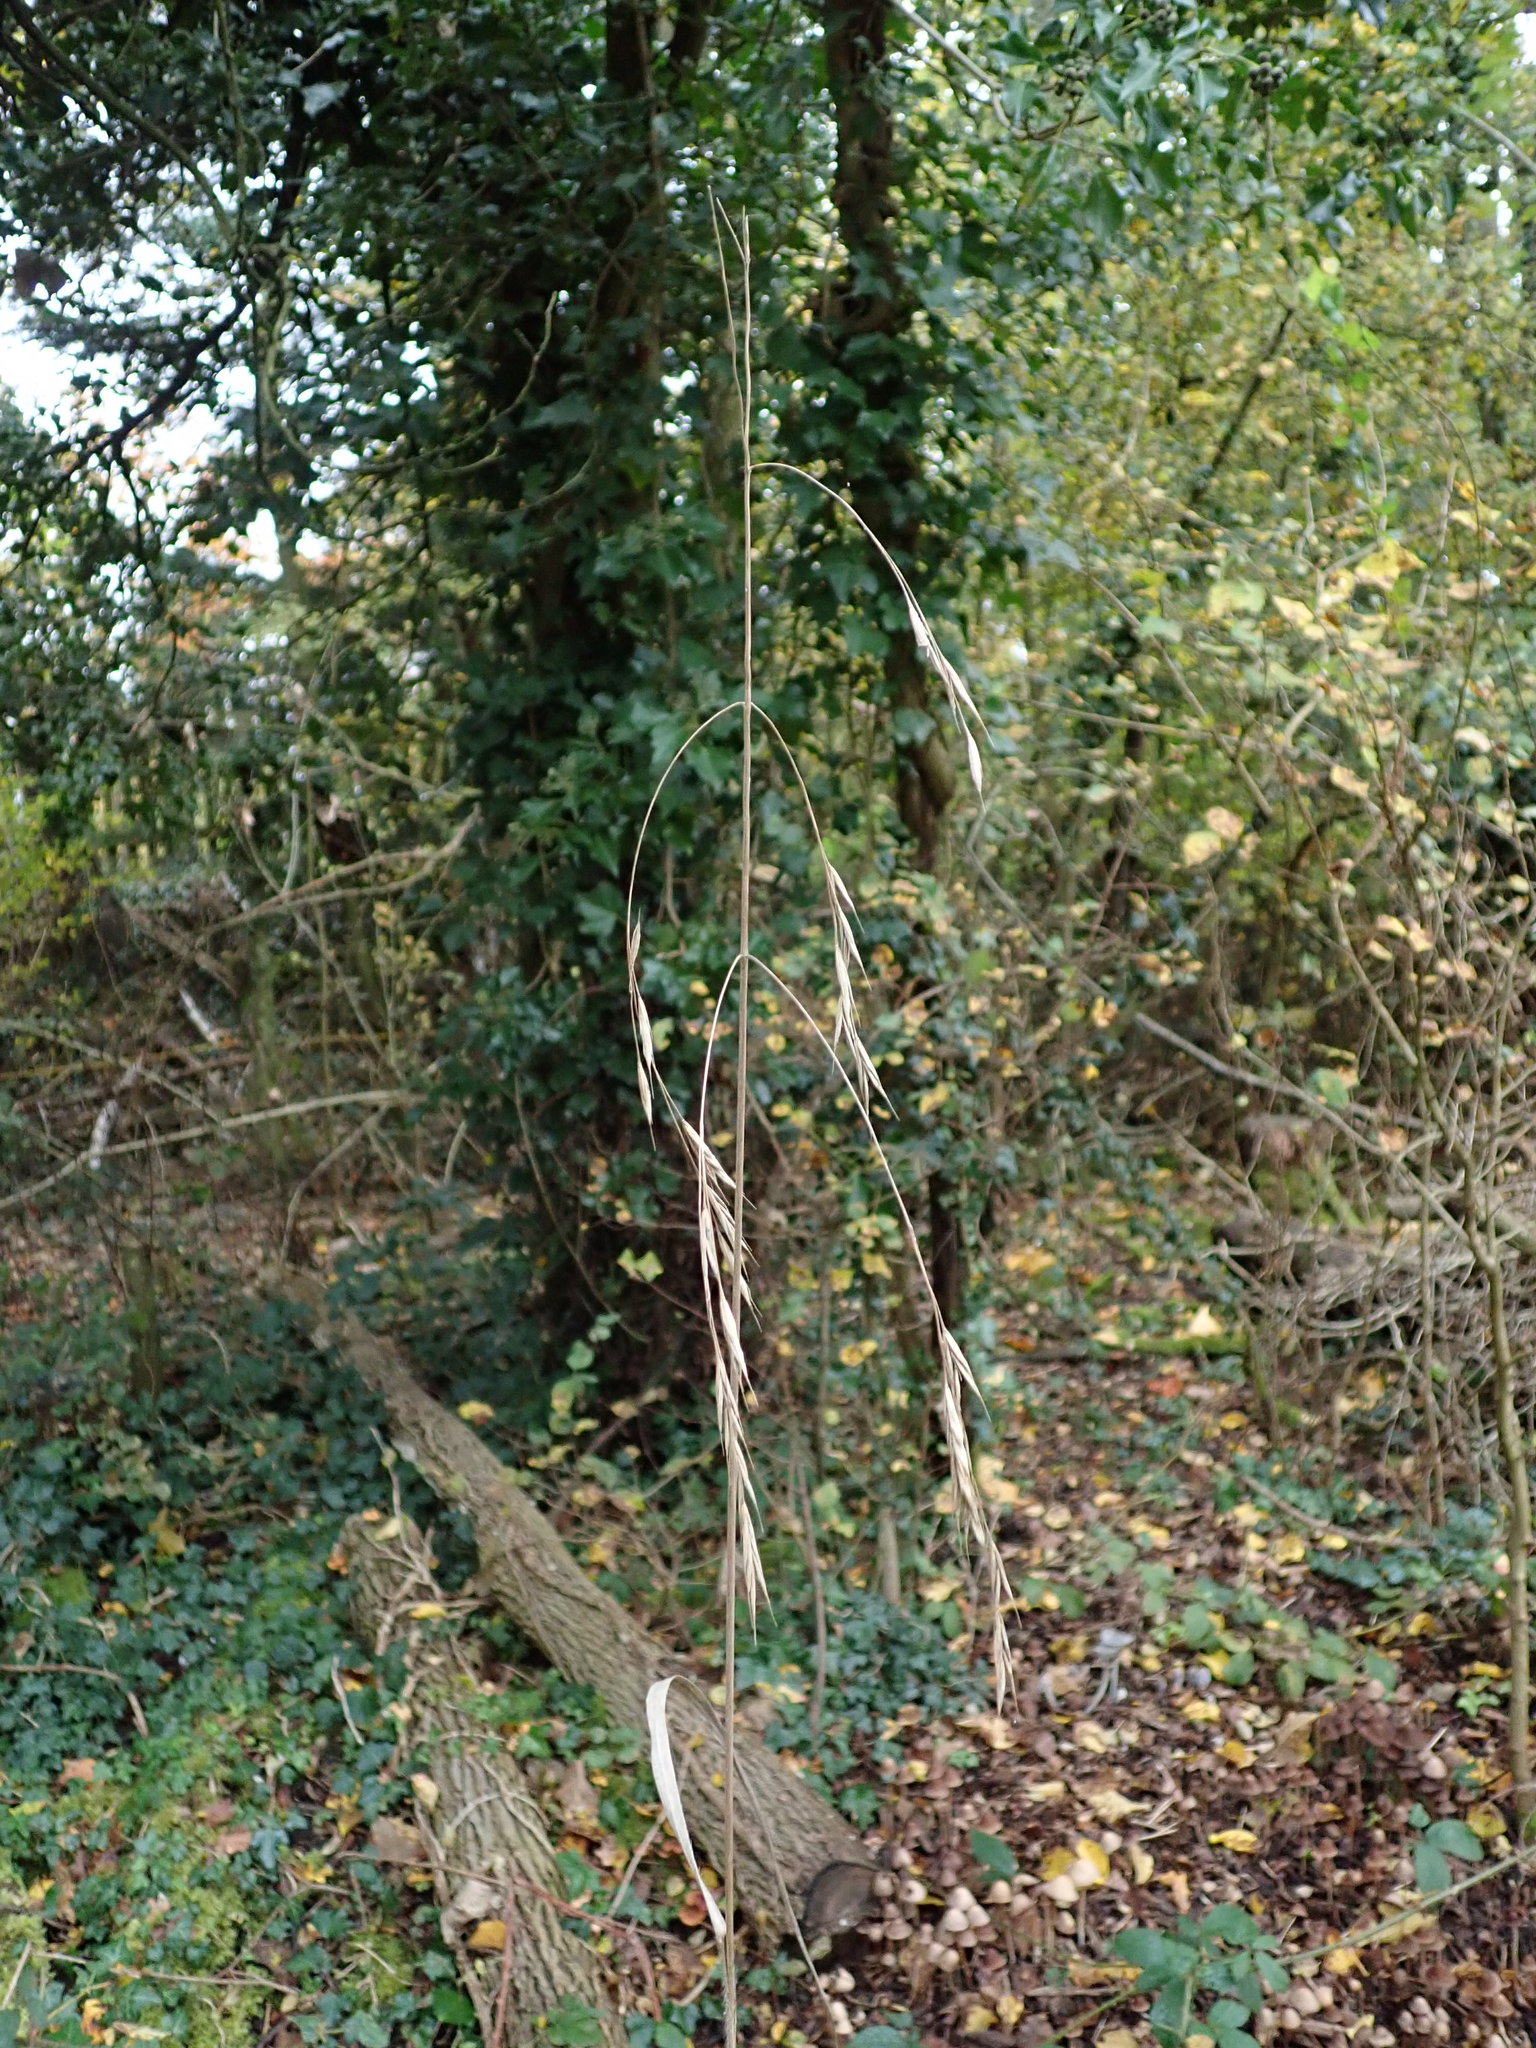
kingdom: Plantae
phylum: Tracheophyta
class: Liliopsida
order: Poales
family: Poaceae
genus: Bromus
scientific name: Bromus ramosus
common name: Hairy brome
